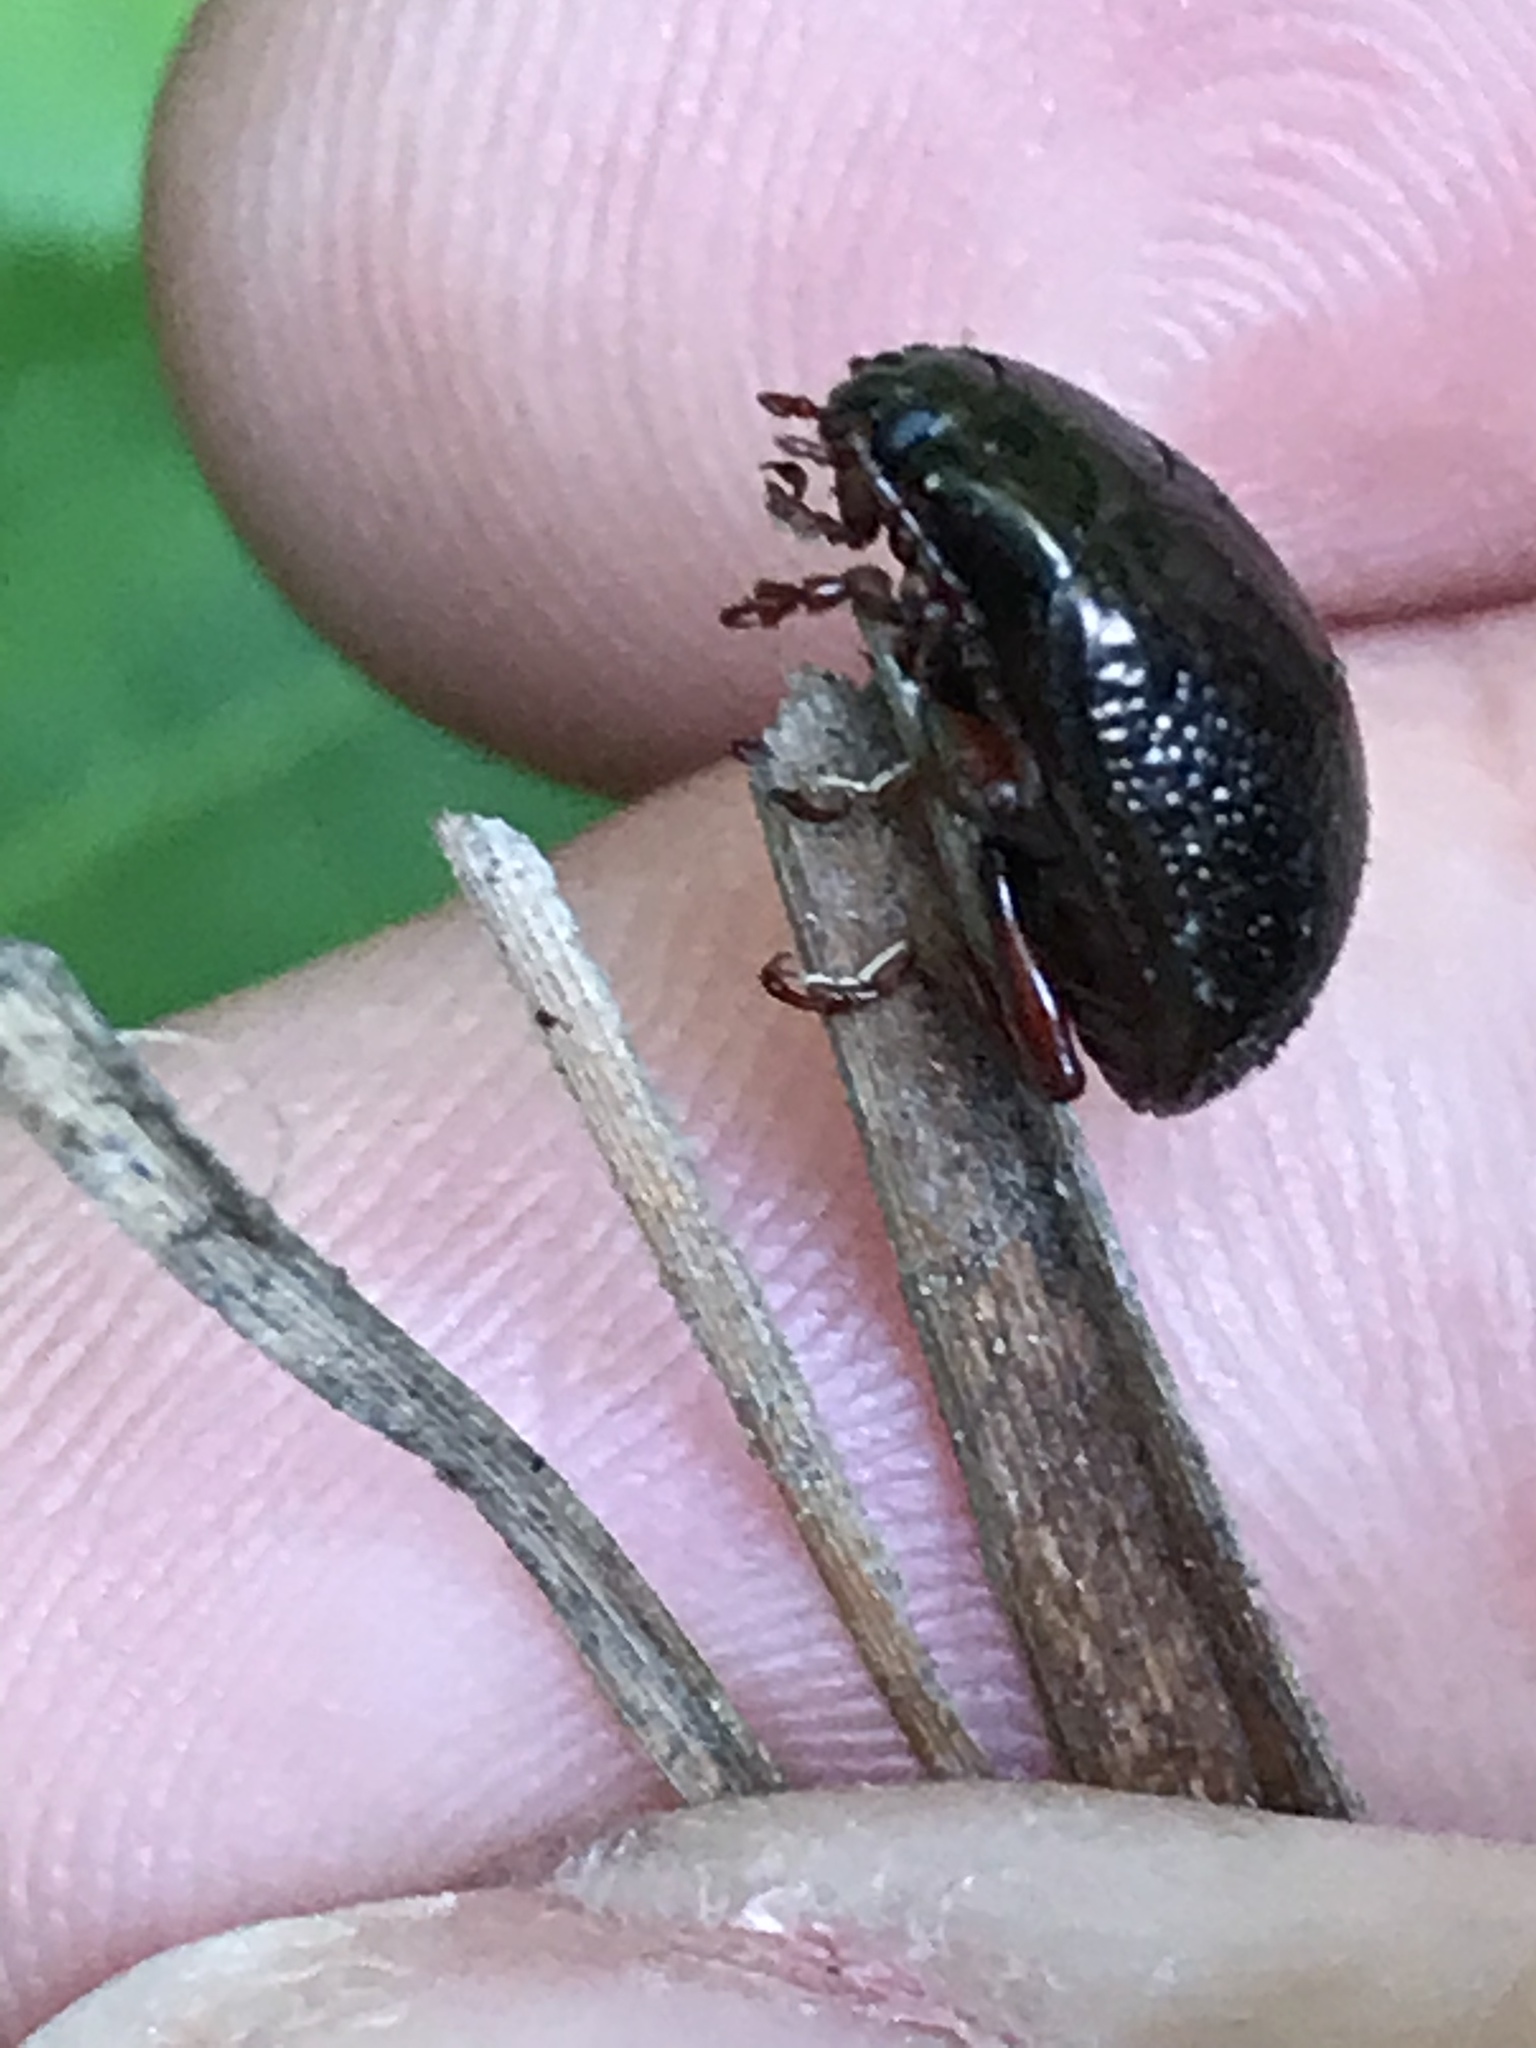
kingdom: Animalia
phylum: Arthropoda
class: Insecta
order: Coleoptera
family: Chrysomelidae
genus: Chrysolina
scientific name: Chrysolina bankii
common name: Leaf beetle
